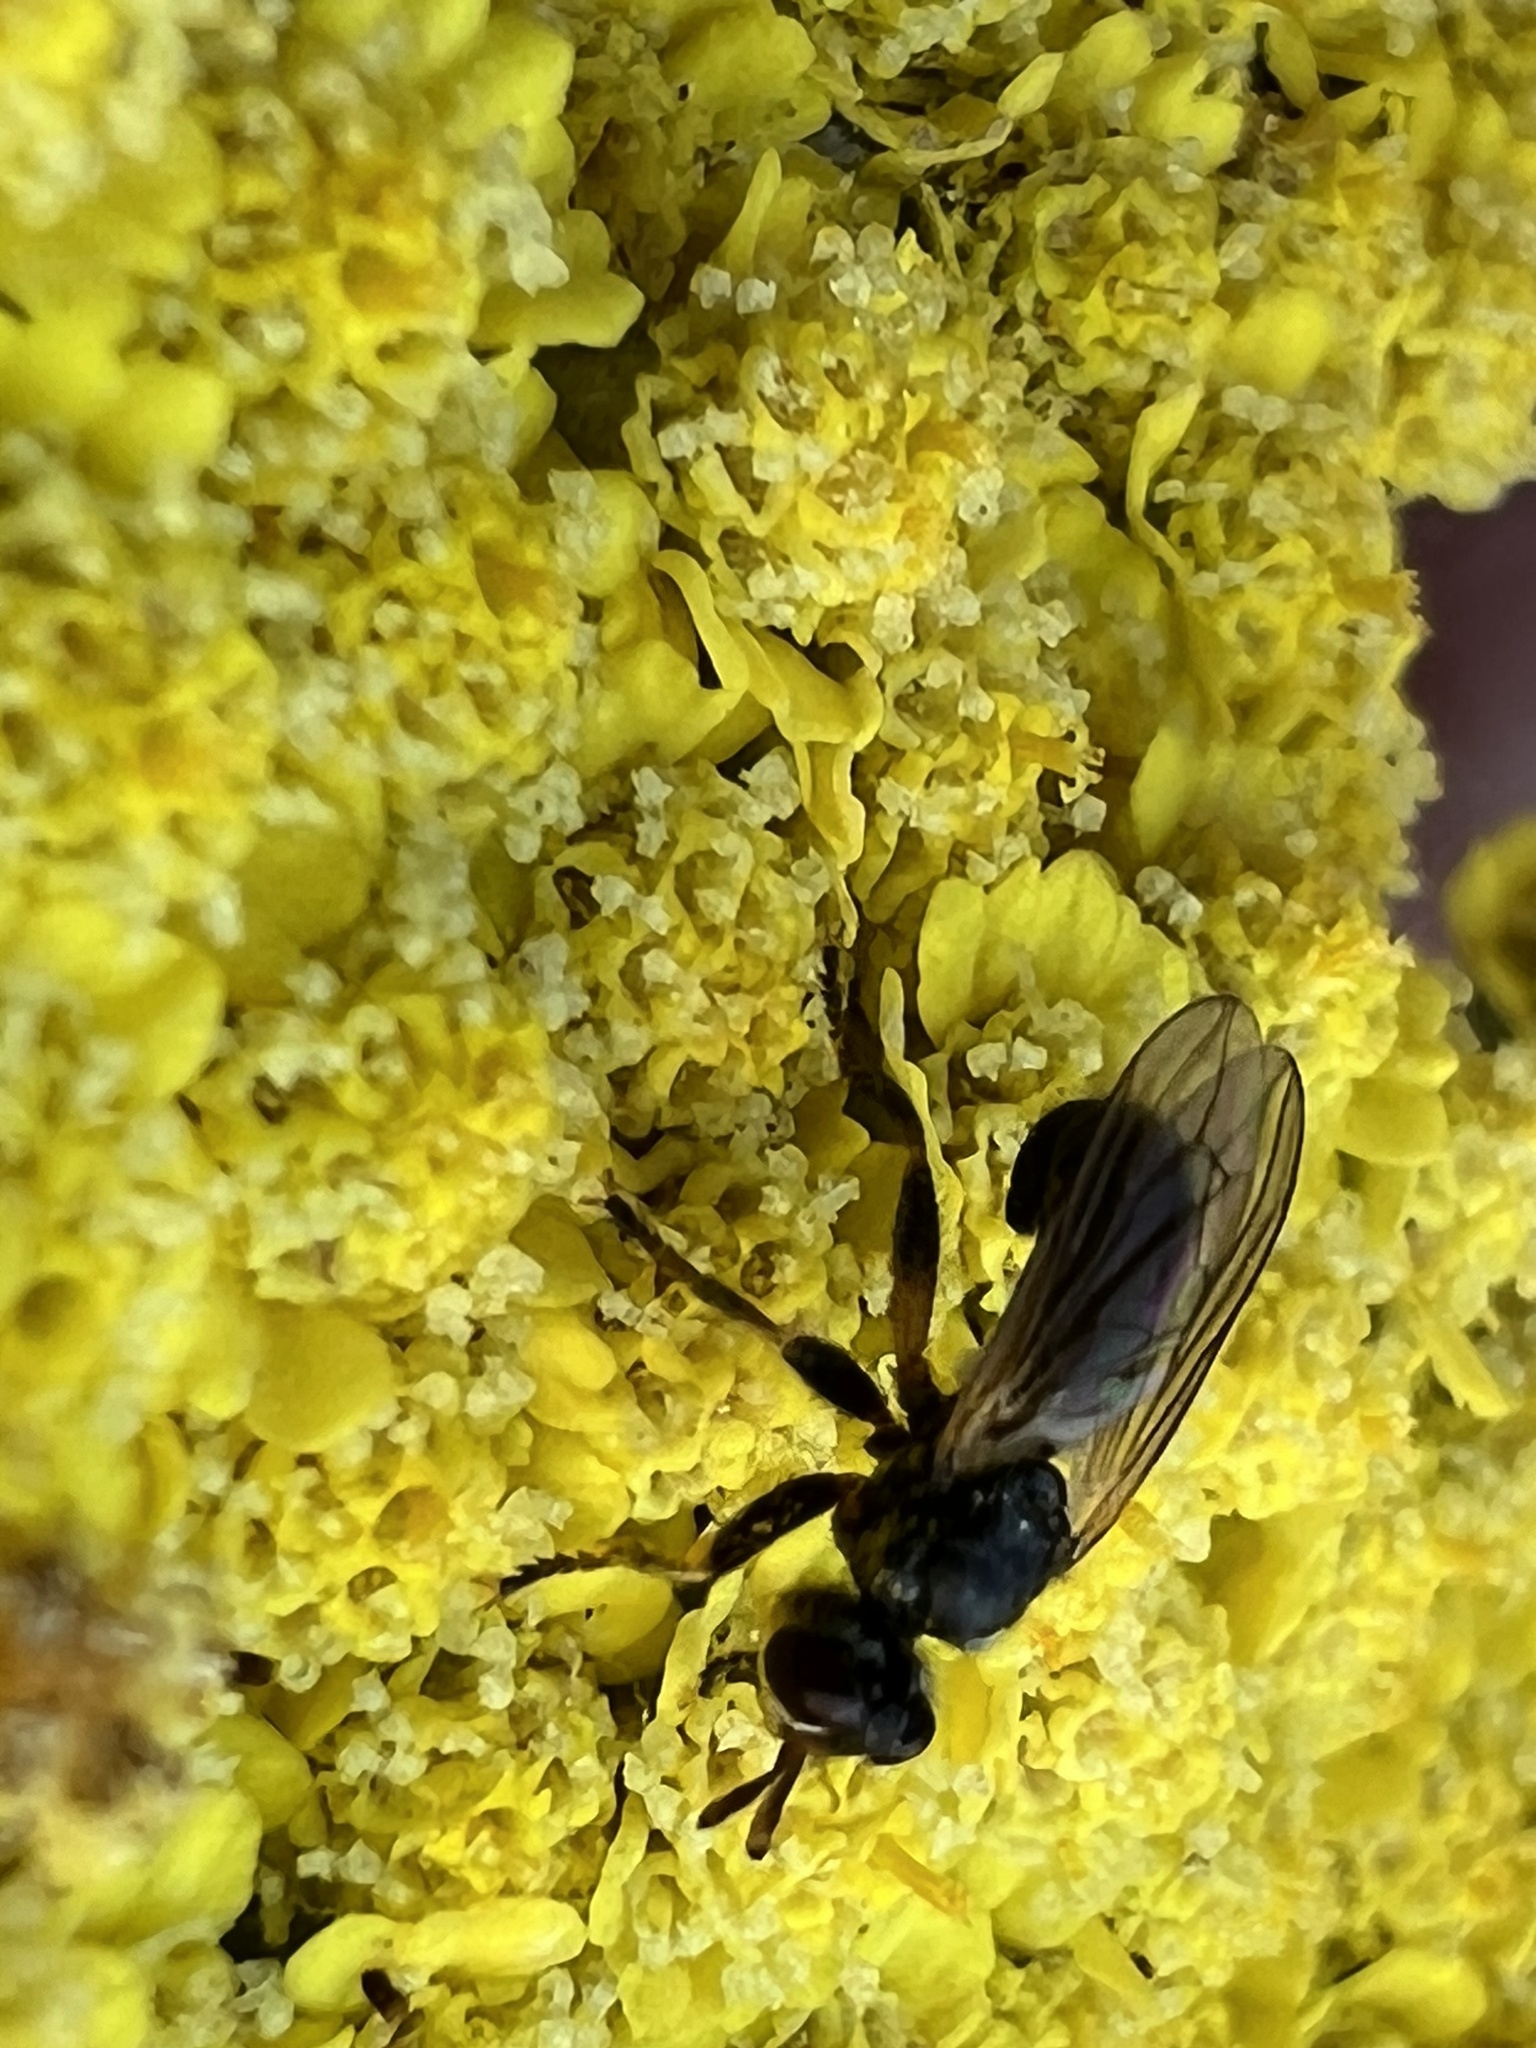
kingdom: Animalia
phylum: Arthropoda
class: Insecta
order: Diptera
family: Conopidae
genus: Thecophora
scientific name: Thecophora occidensis
